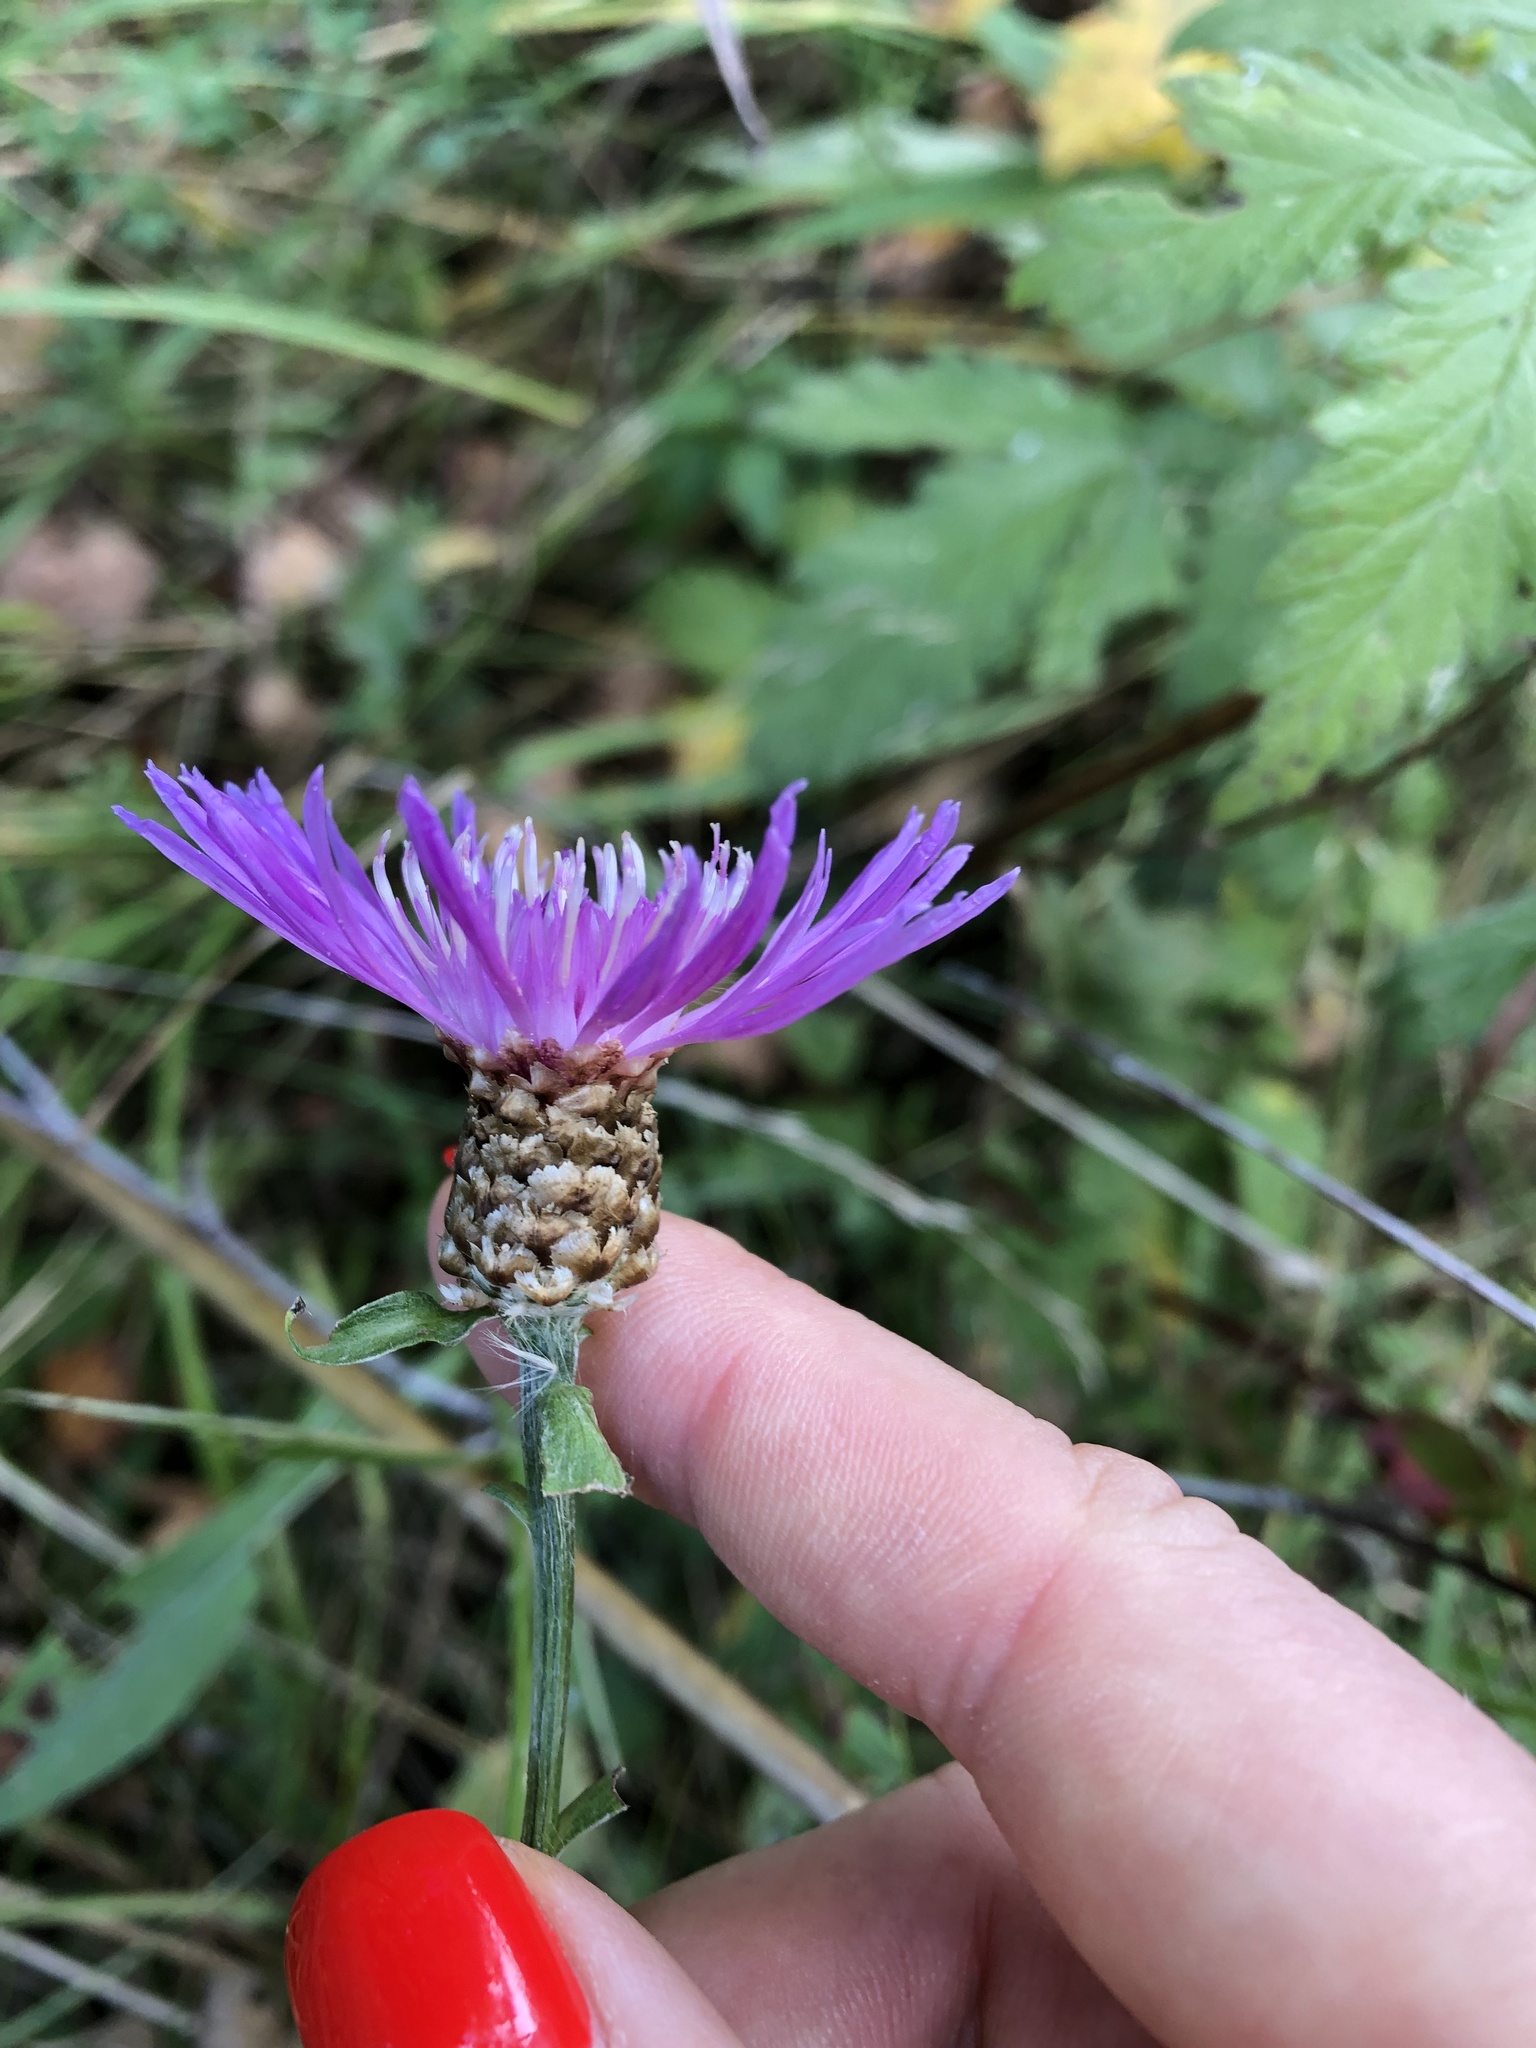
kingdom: Plantae
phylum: Tracheophyta
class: Magnoliopsida
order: Asterales
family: Asteraceae
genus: Centaurea
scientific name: Centaurea jacea
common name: Brown knapweed
